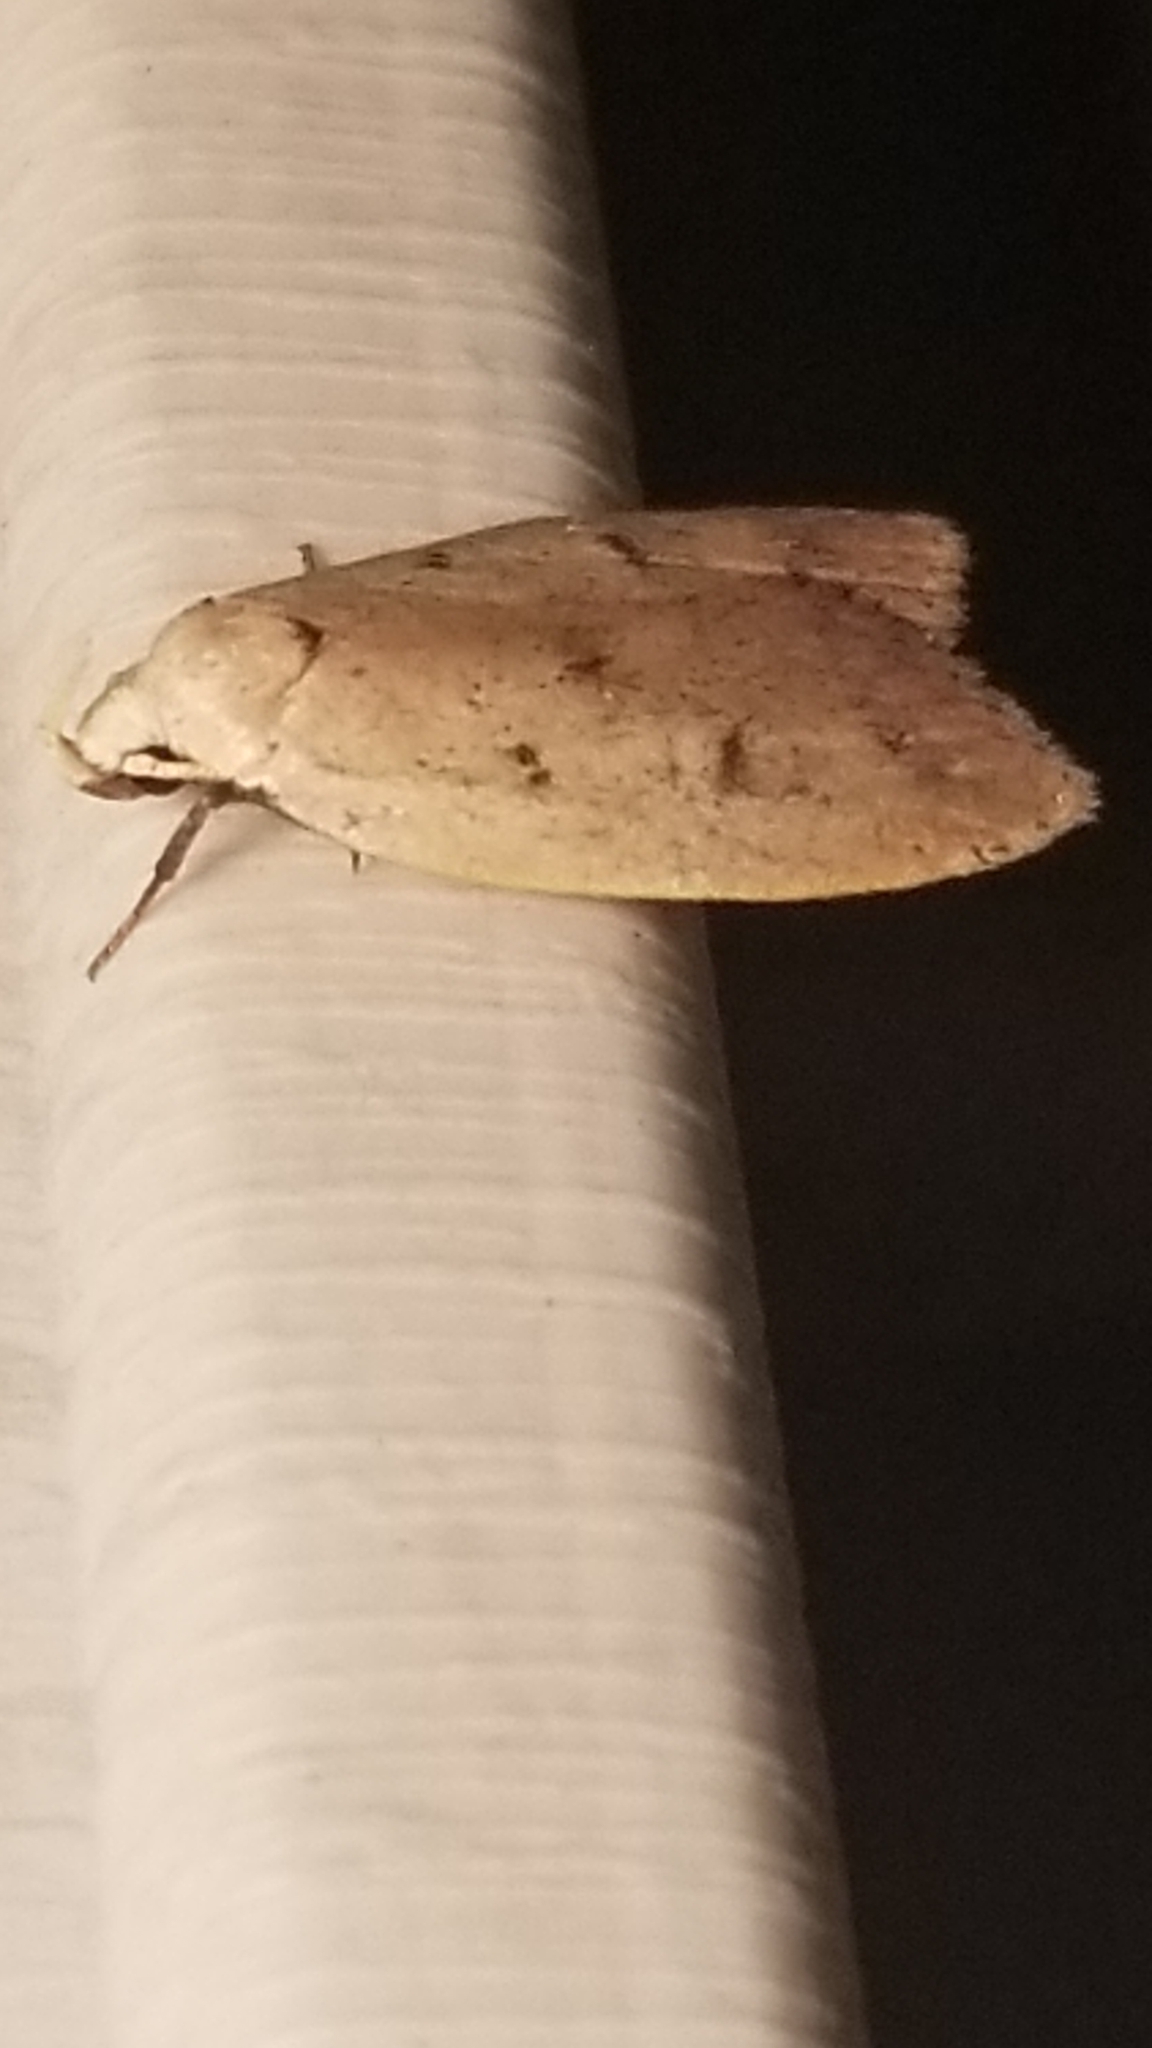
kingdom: Animalia
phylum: Arthropoda
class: Insecta
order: Lepidoptera
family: Peleopodidae
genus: Machimia
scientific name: Machimia tentoriferella
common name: Gold-striped leaftier moth
